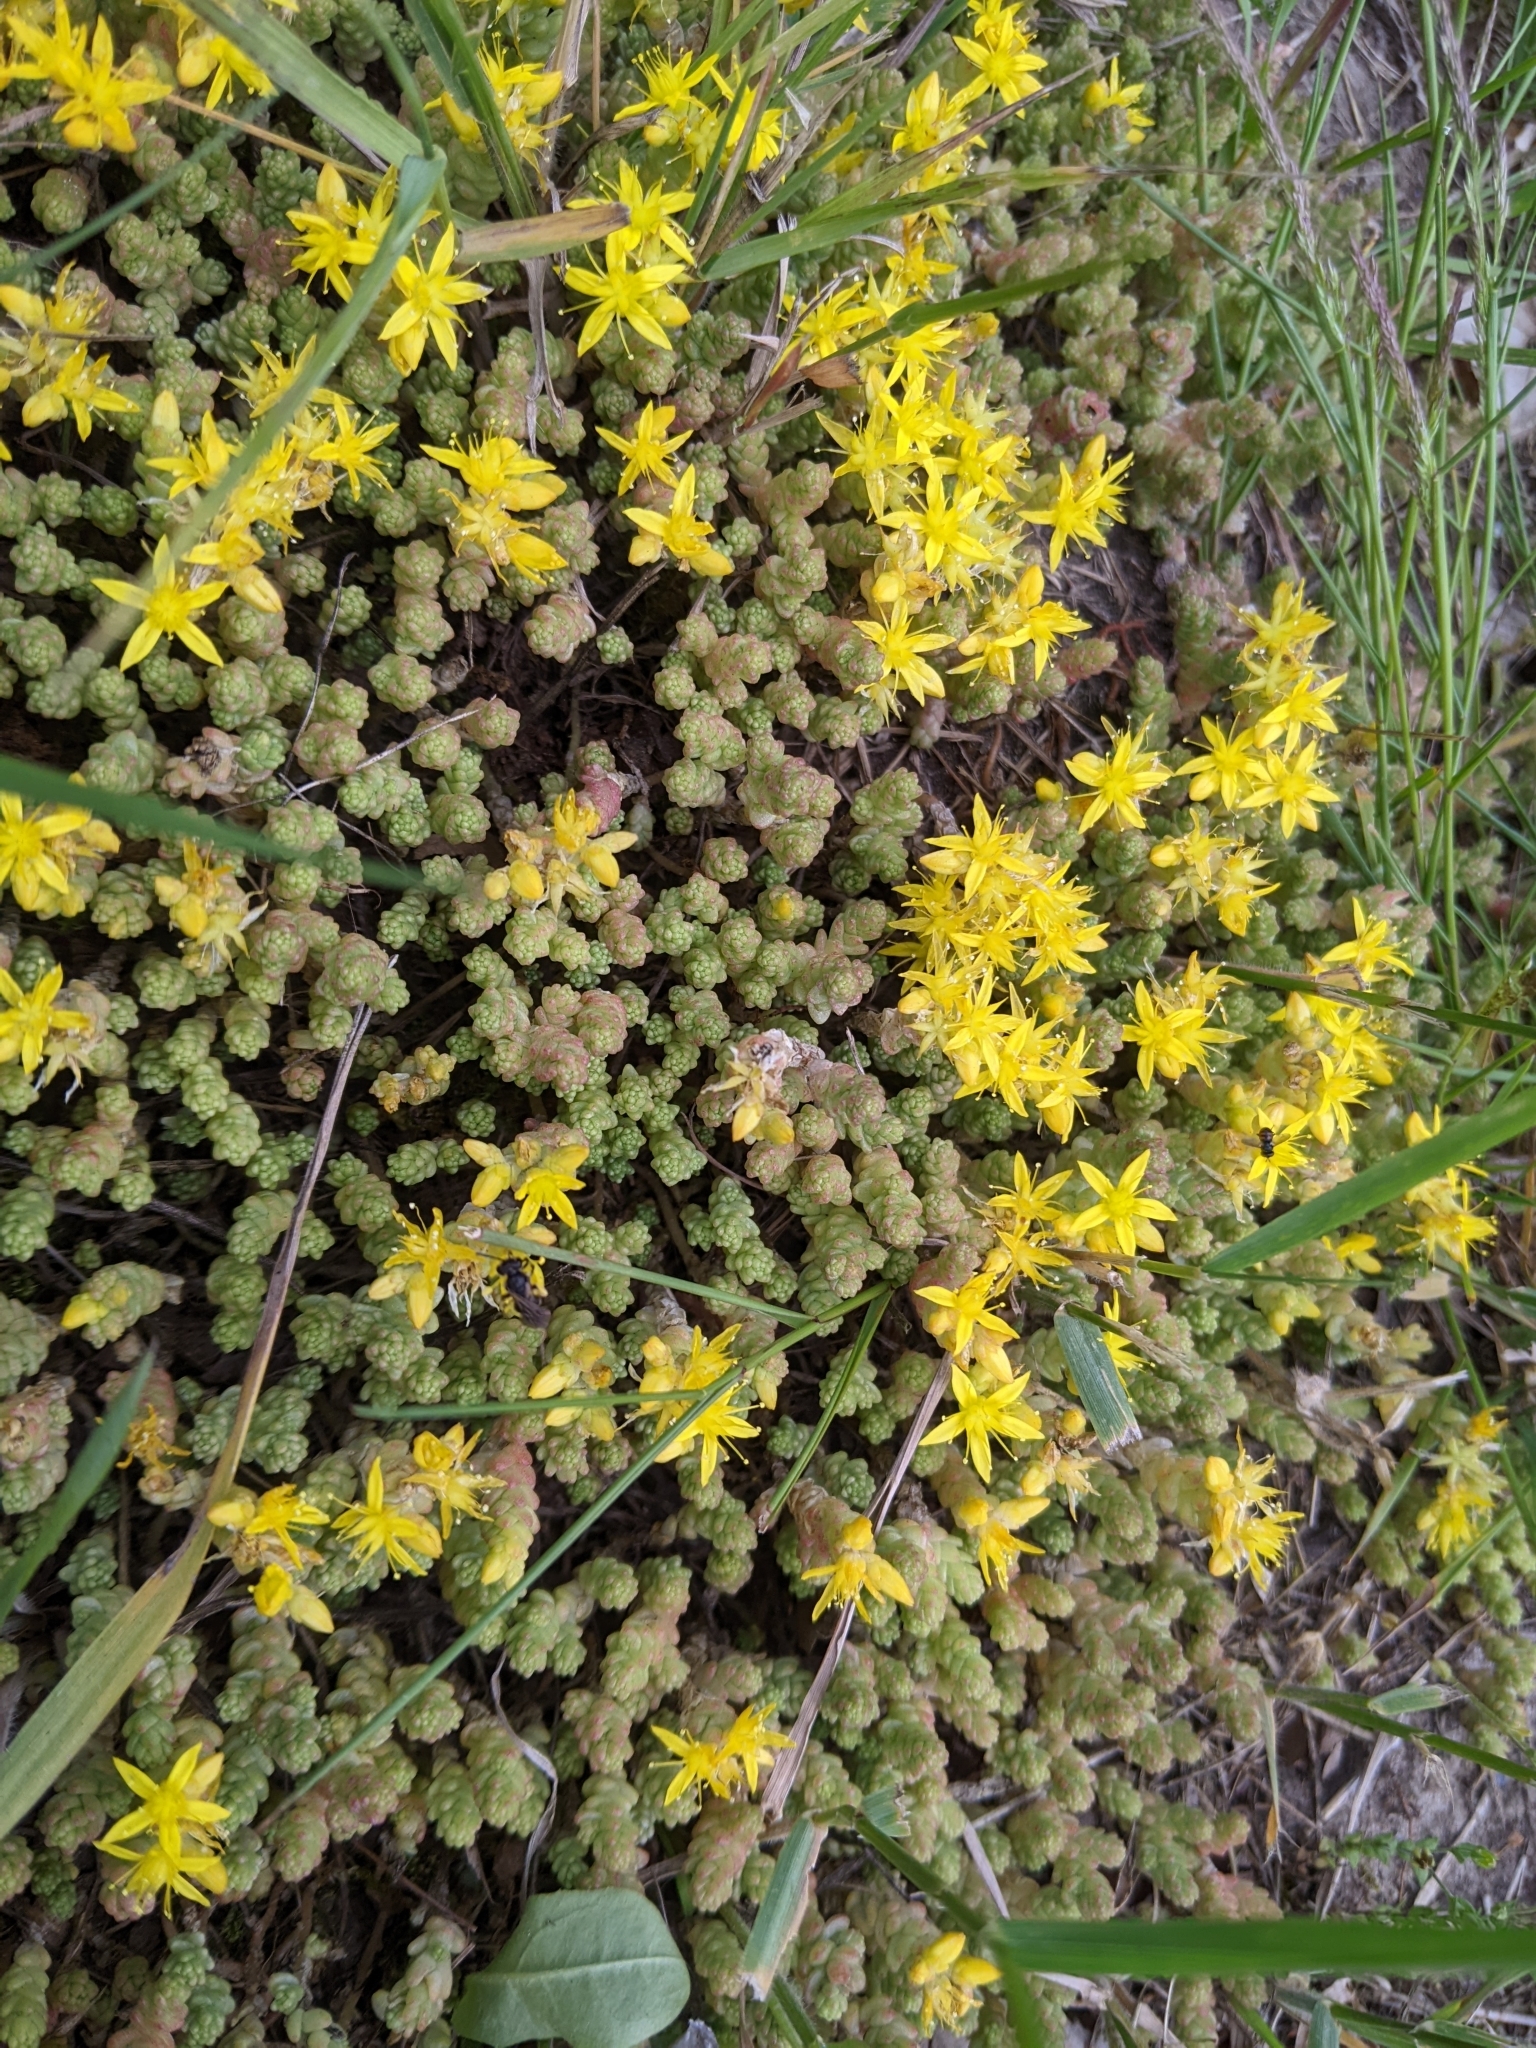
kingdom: Plantae
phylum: Tracheophyta
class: Magnoliopsida
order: Saxifragales
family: Crassulaceae
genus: Sedum
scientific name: Sedum acre
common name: Biting stonecrop
